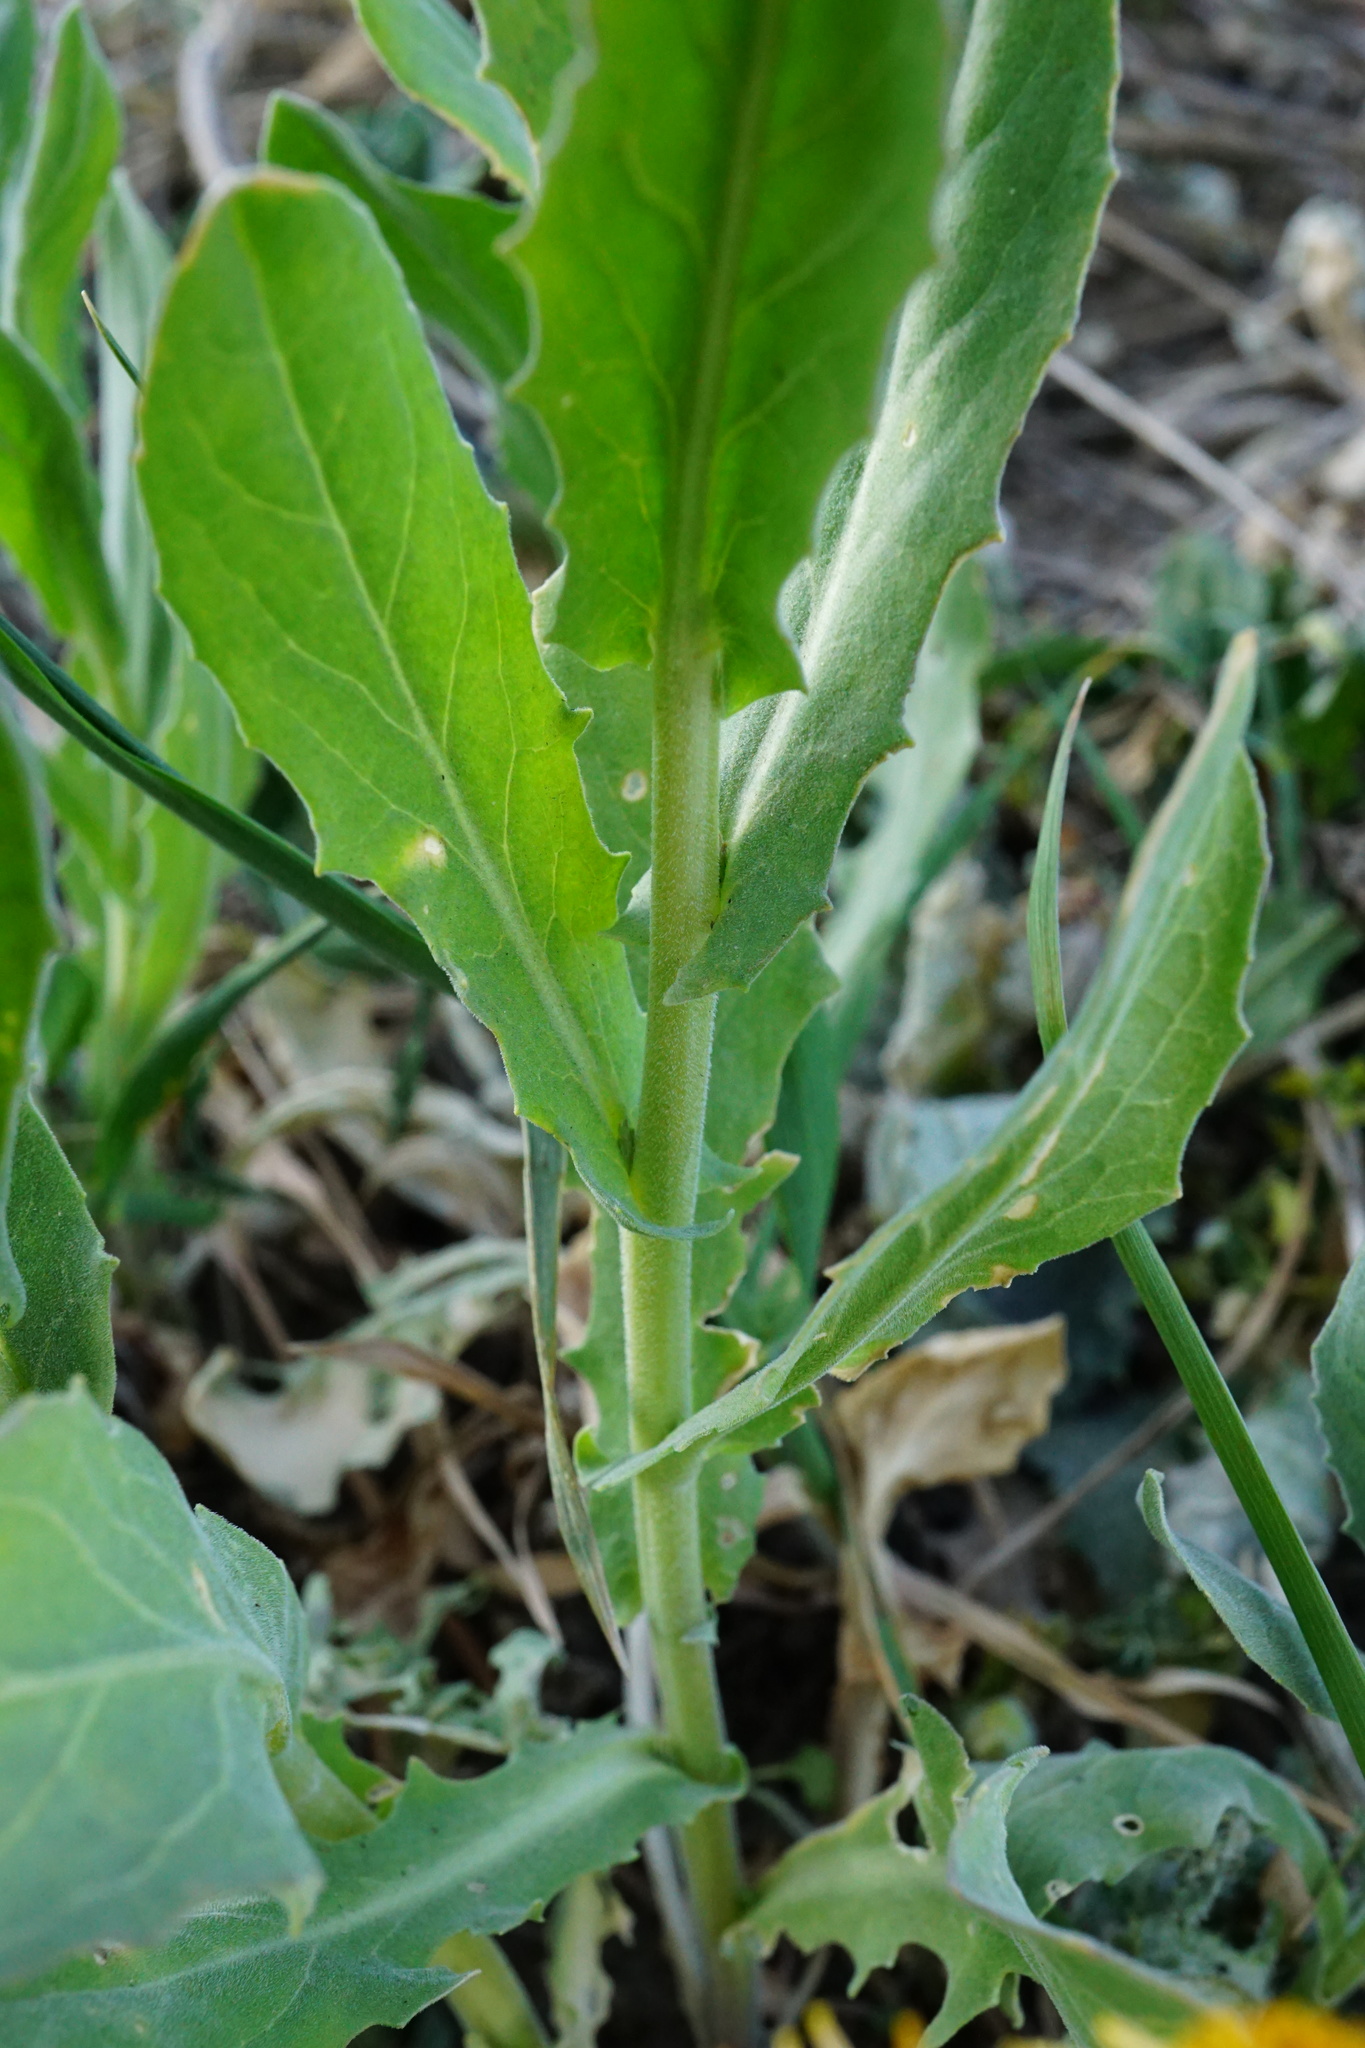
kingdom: Plantae
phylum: Tracheophyta
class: Magnoliopsida
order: Brassicales
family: Brassicaceae
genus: Lepidium
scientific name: Lepidium draba
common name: Hoary cress
